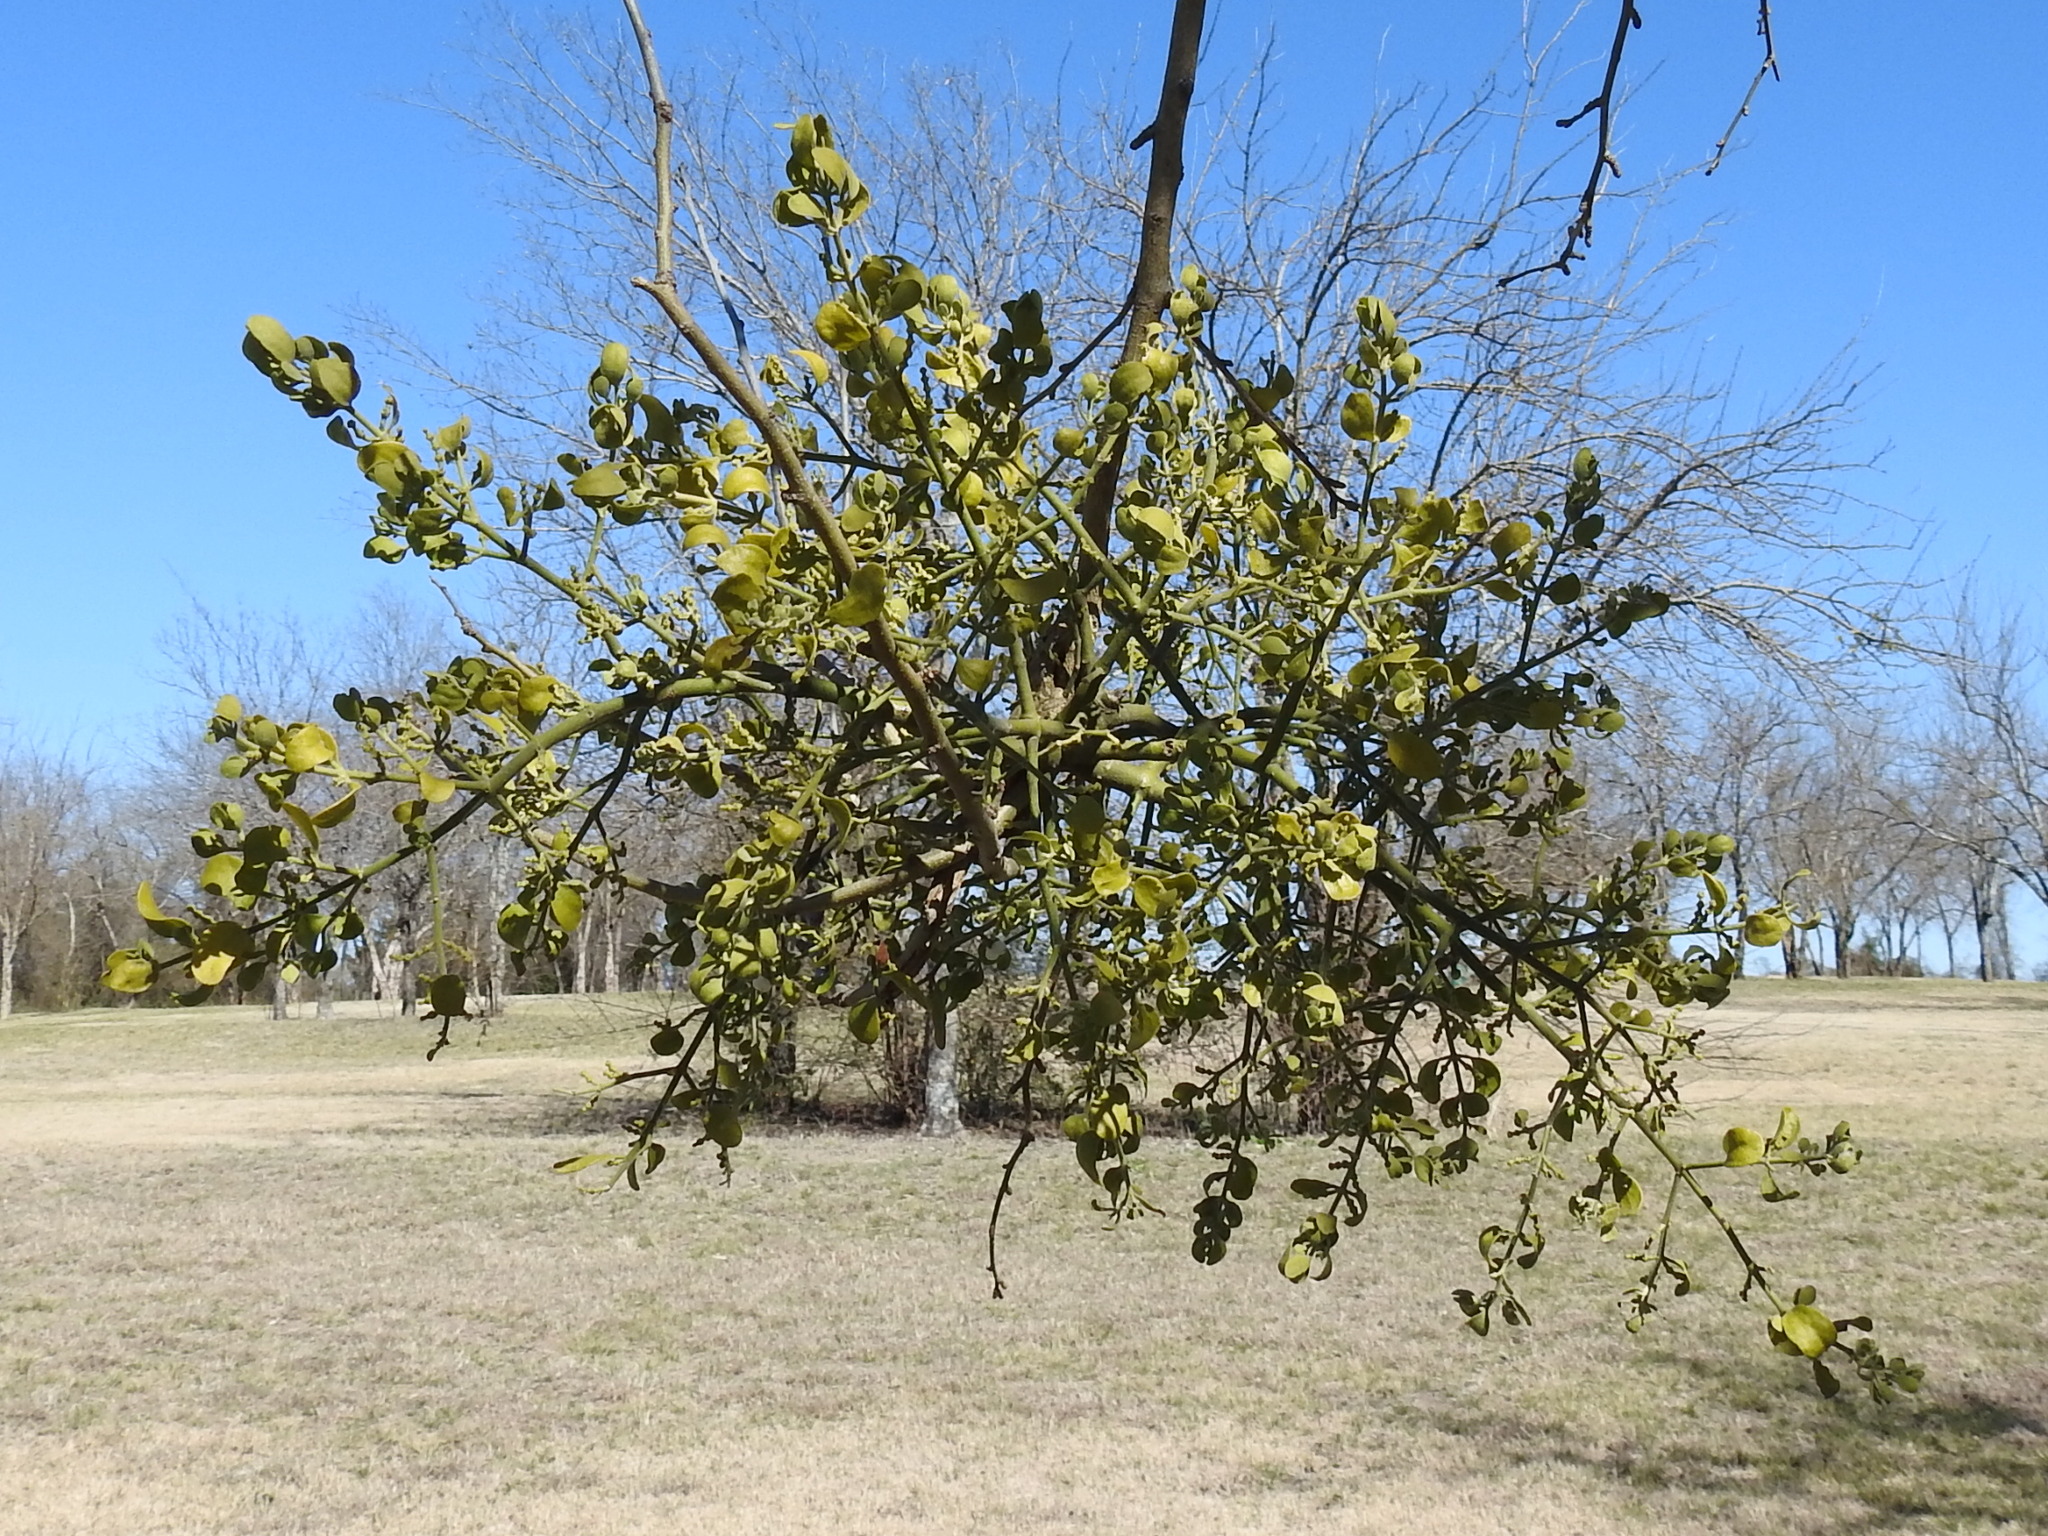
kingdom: Plantae
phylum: Tracheophyta
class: Magnoliopsida
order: Santalales
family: Viscaceae
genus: Phoradendron
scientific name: Phoradendron leucarpum
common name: Pacific mistletoe
